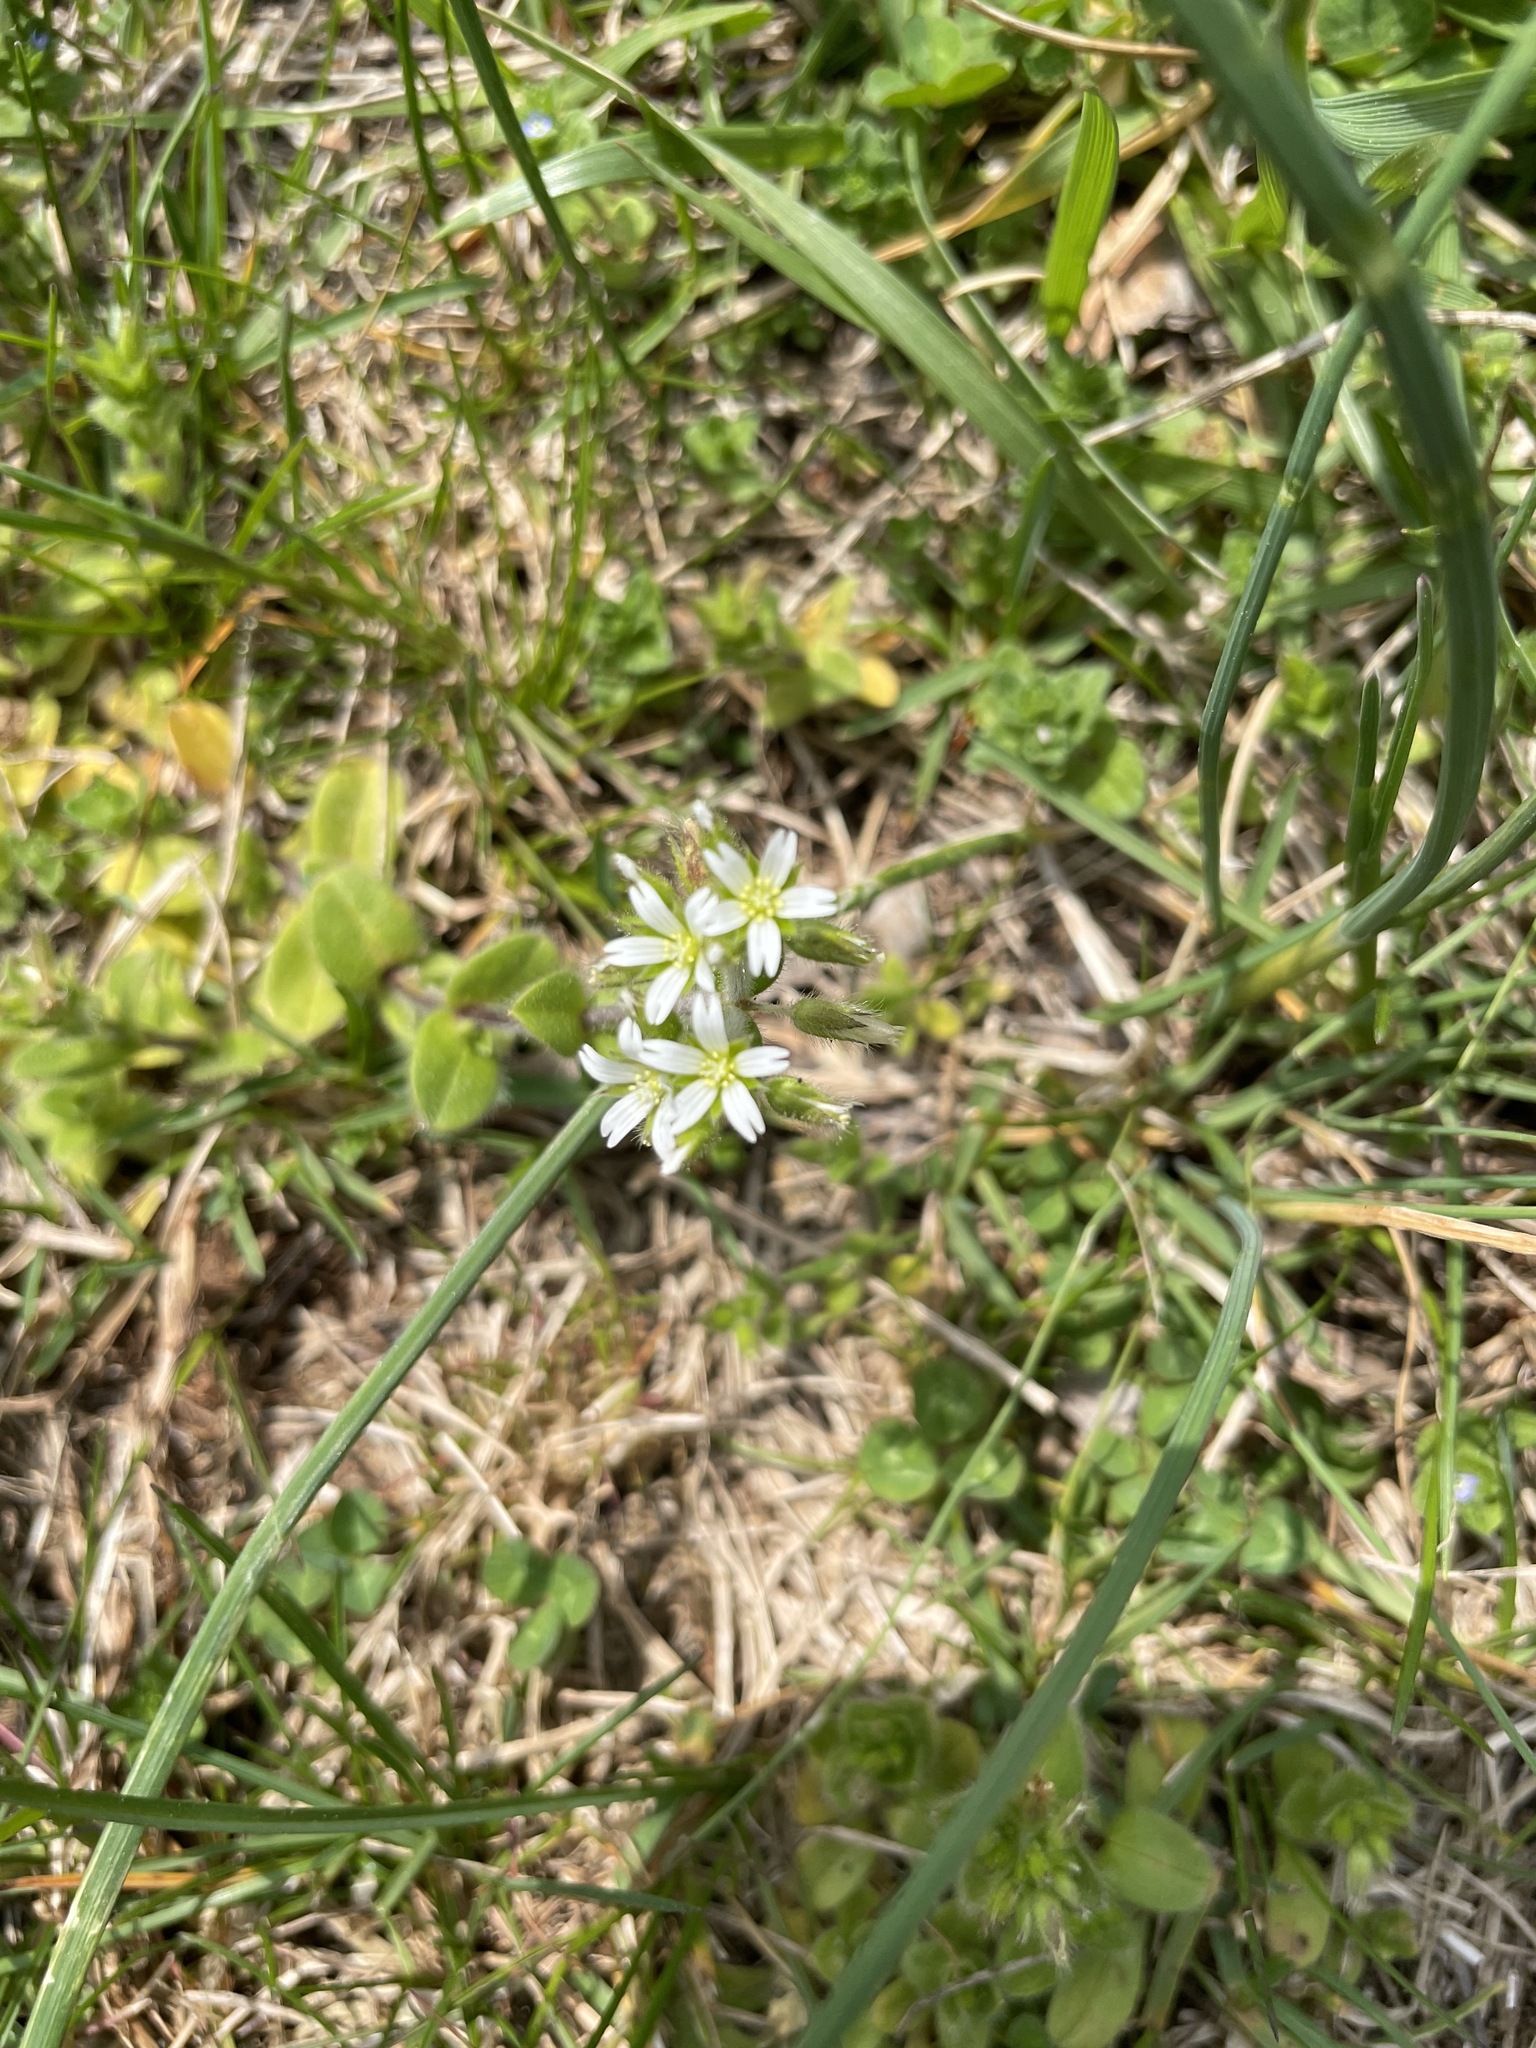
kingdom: Plantae
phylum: Tracheophyta
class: Magnoliopsida
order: Caryophyllales
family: Caryophyllaceae
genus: Cerastium
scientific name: Cerastium fontanum
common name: Common mouse-ear
